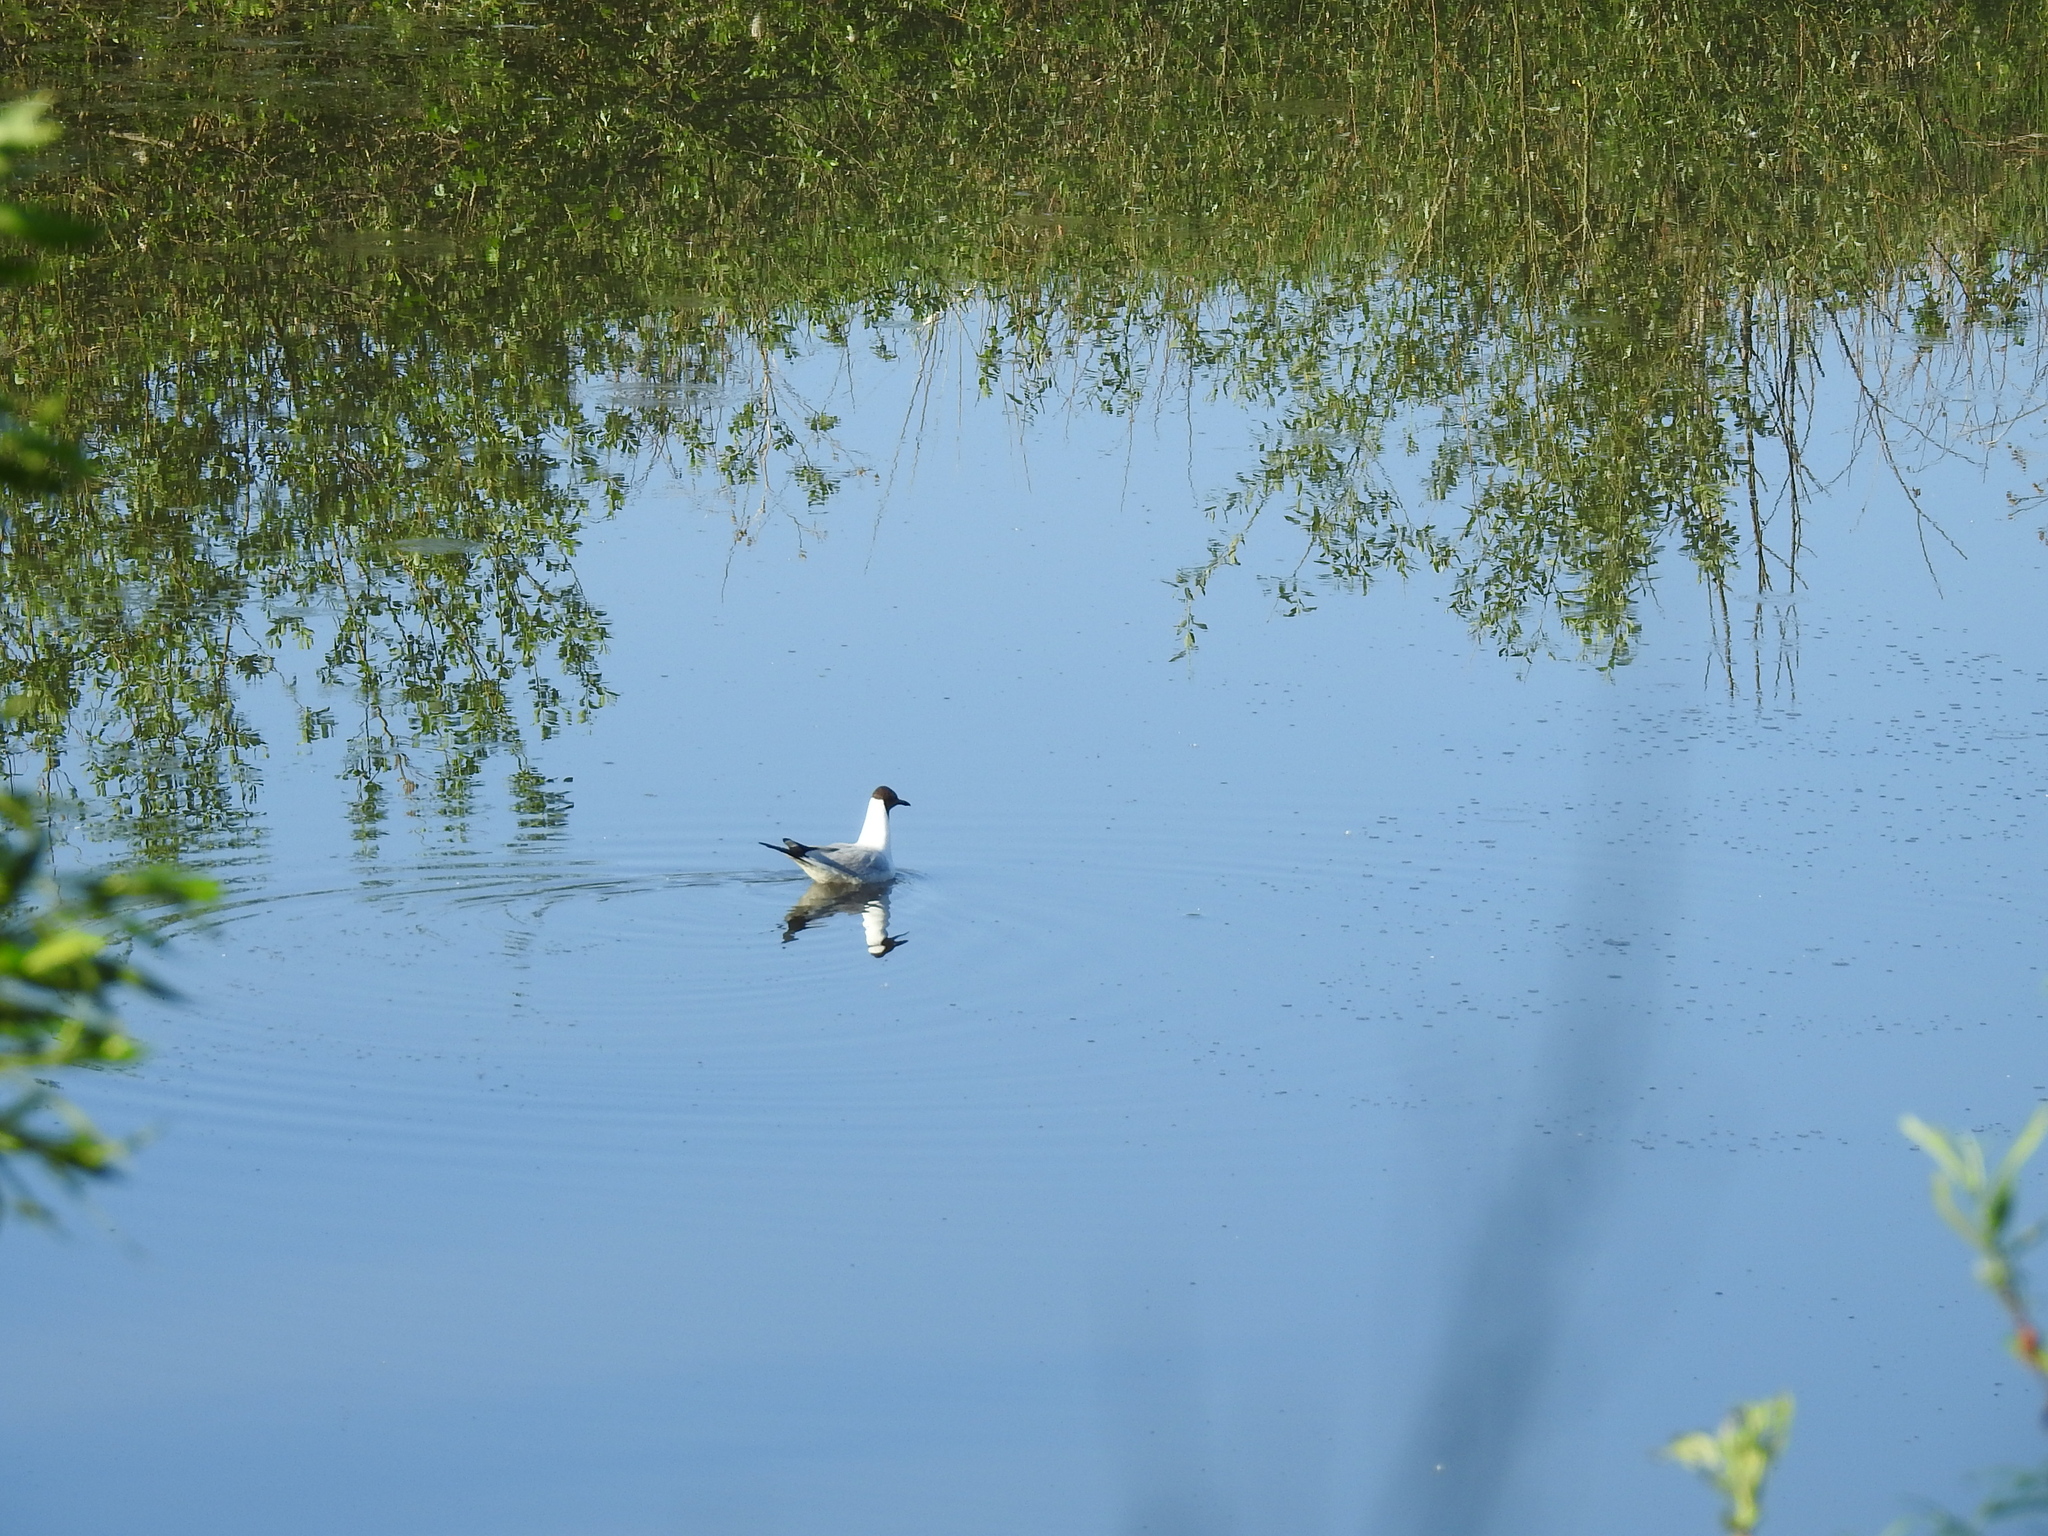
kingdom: Animalia
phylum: Chordata
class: Aves
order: Charadriiformes
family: Laridae
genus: Chroicocephalus
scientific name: Chroicocephalus ridibundus
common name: Black-headed gull
